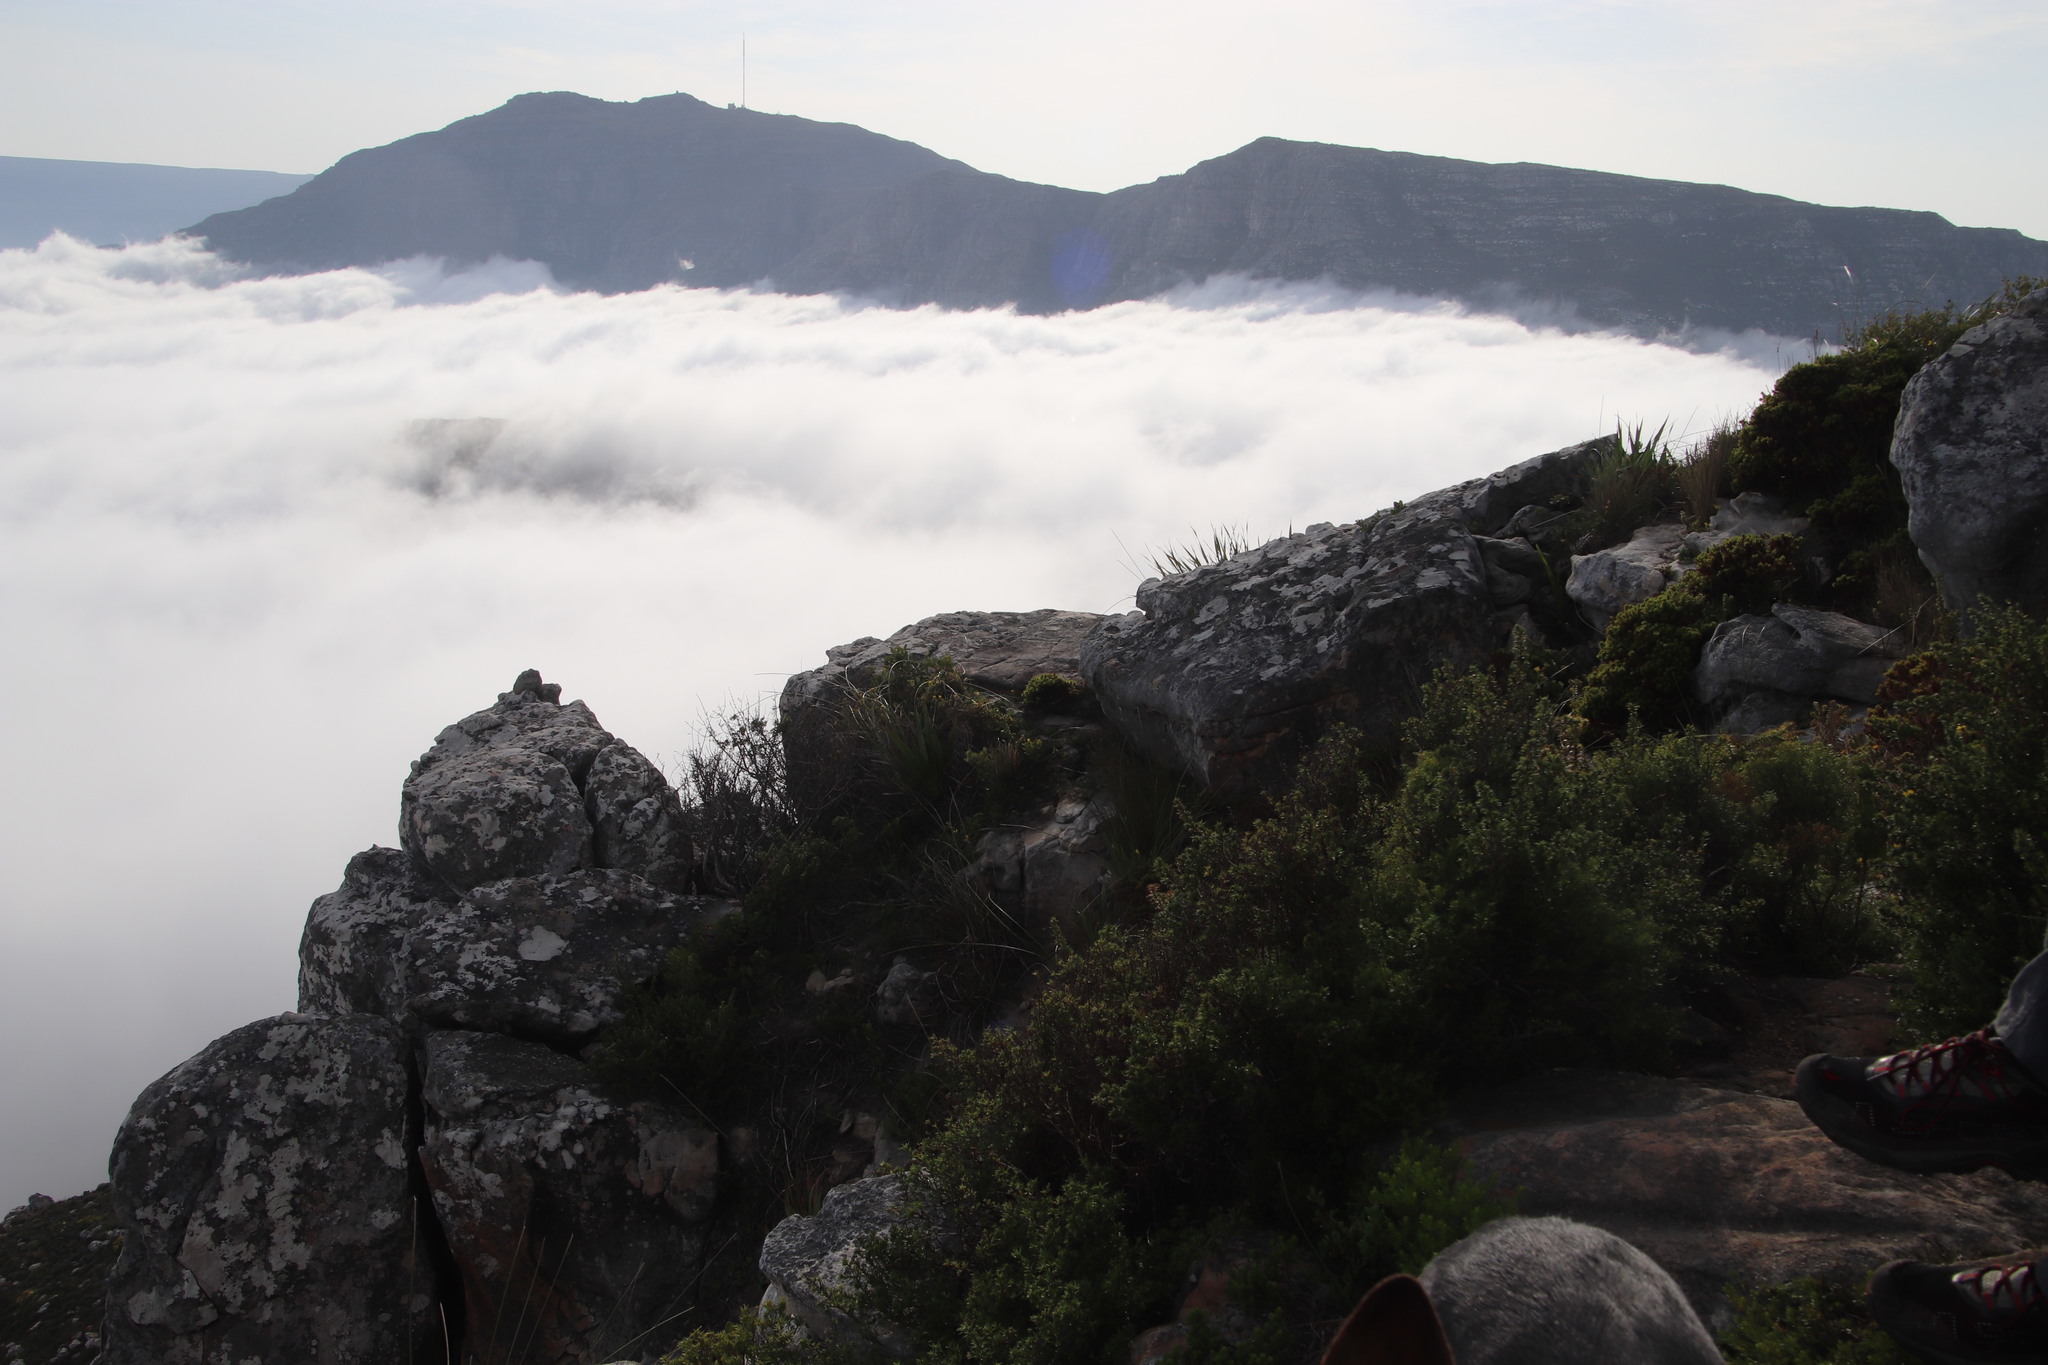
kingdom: Plantae
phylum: Tracheophyta
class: Magnoliopsida
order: Rosales
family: Rosaceae
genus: Cliffortia
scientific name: Cliffortia ruscifolia
